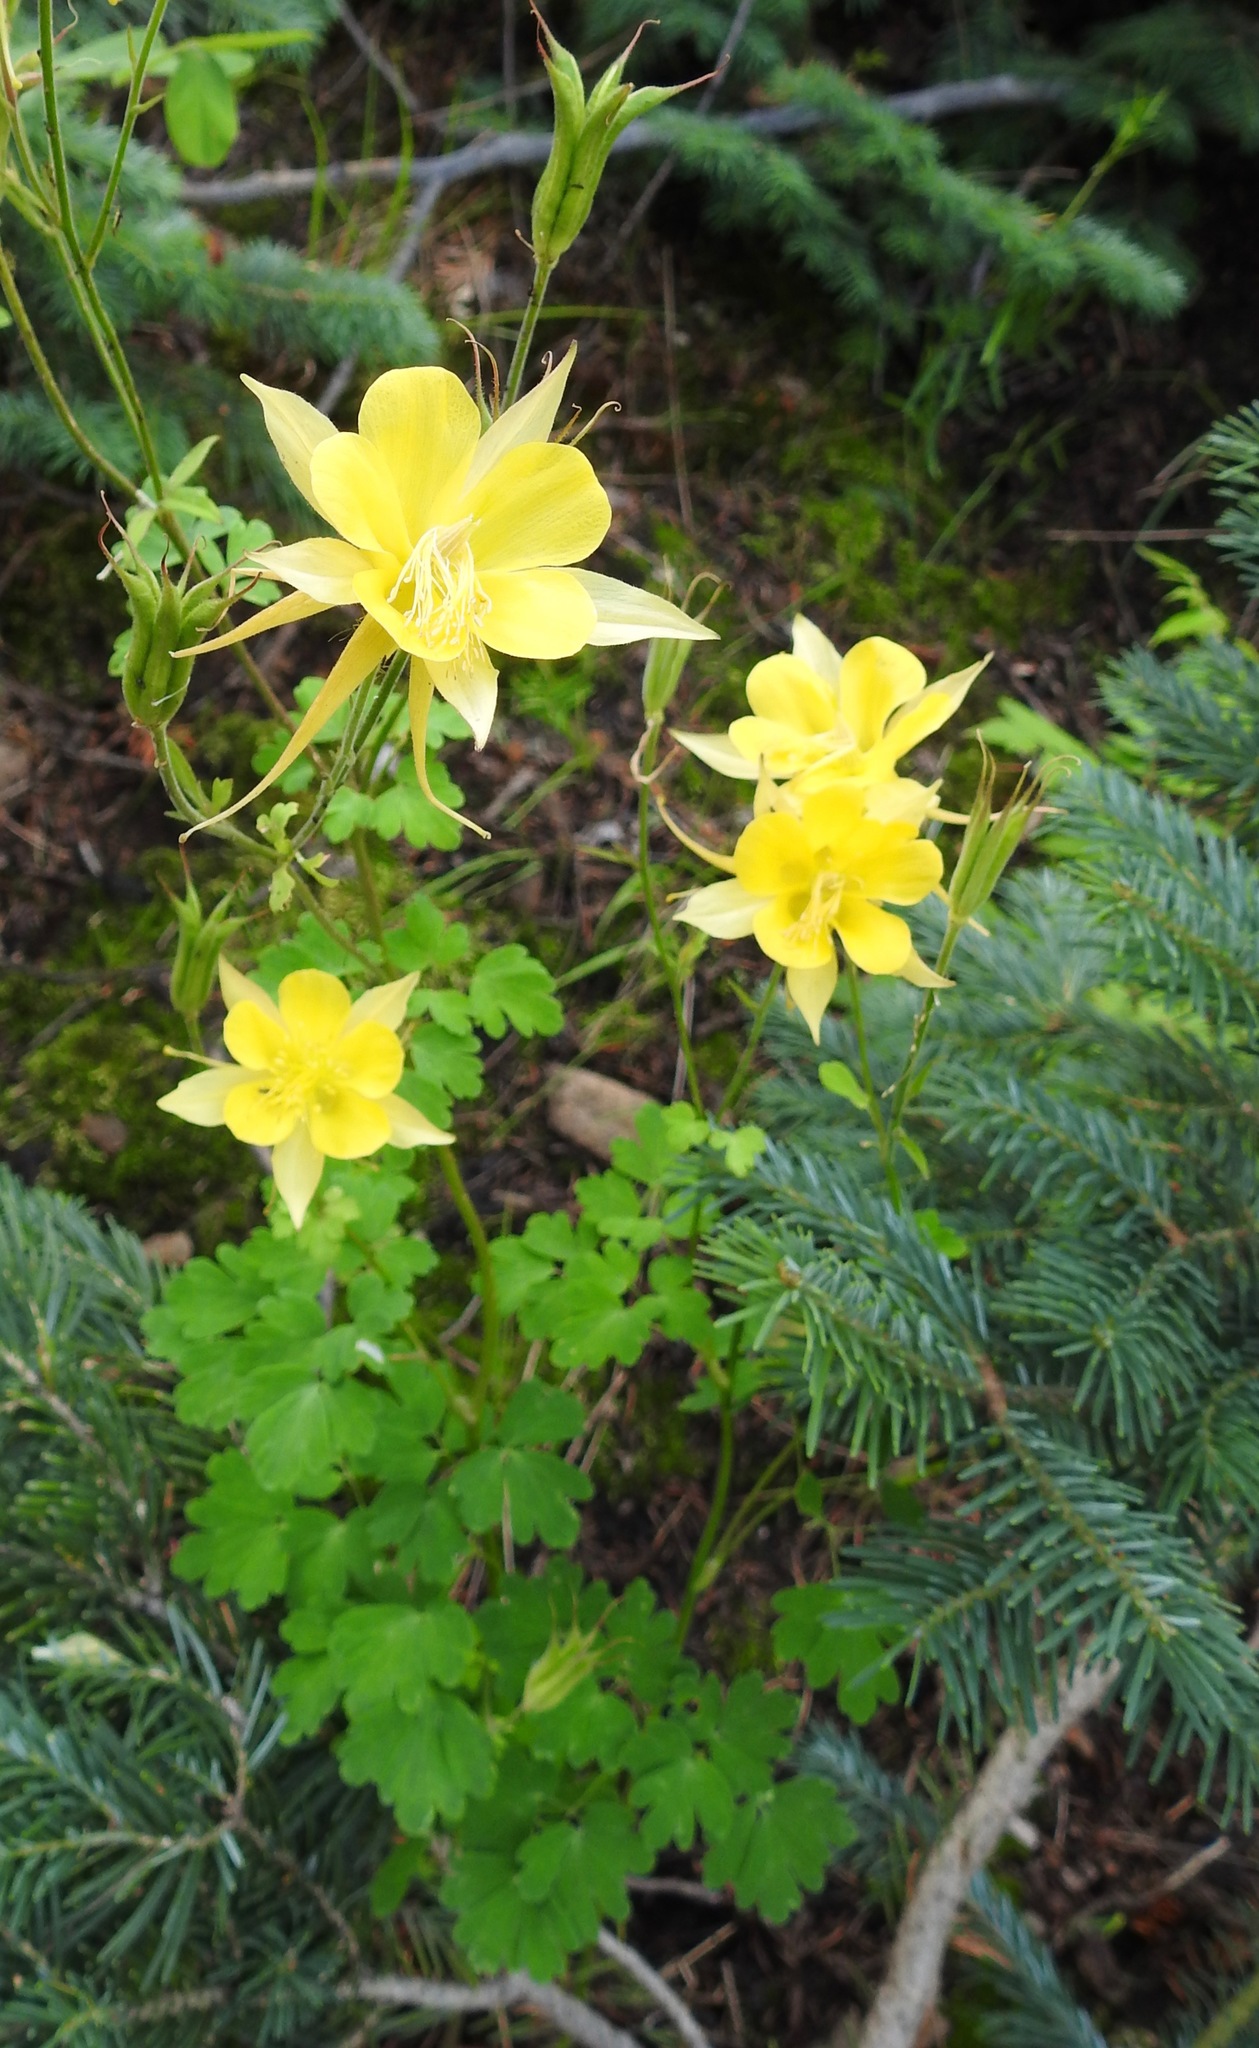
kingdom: Plantae
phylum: Tracheophyta
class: Magnoliopsida
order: Ranunculales
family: Ranunculaceae
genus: Aquilegia
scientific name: Aquilegia chrysantha
